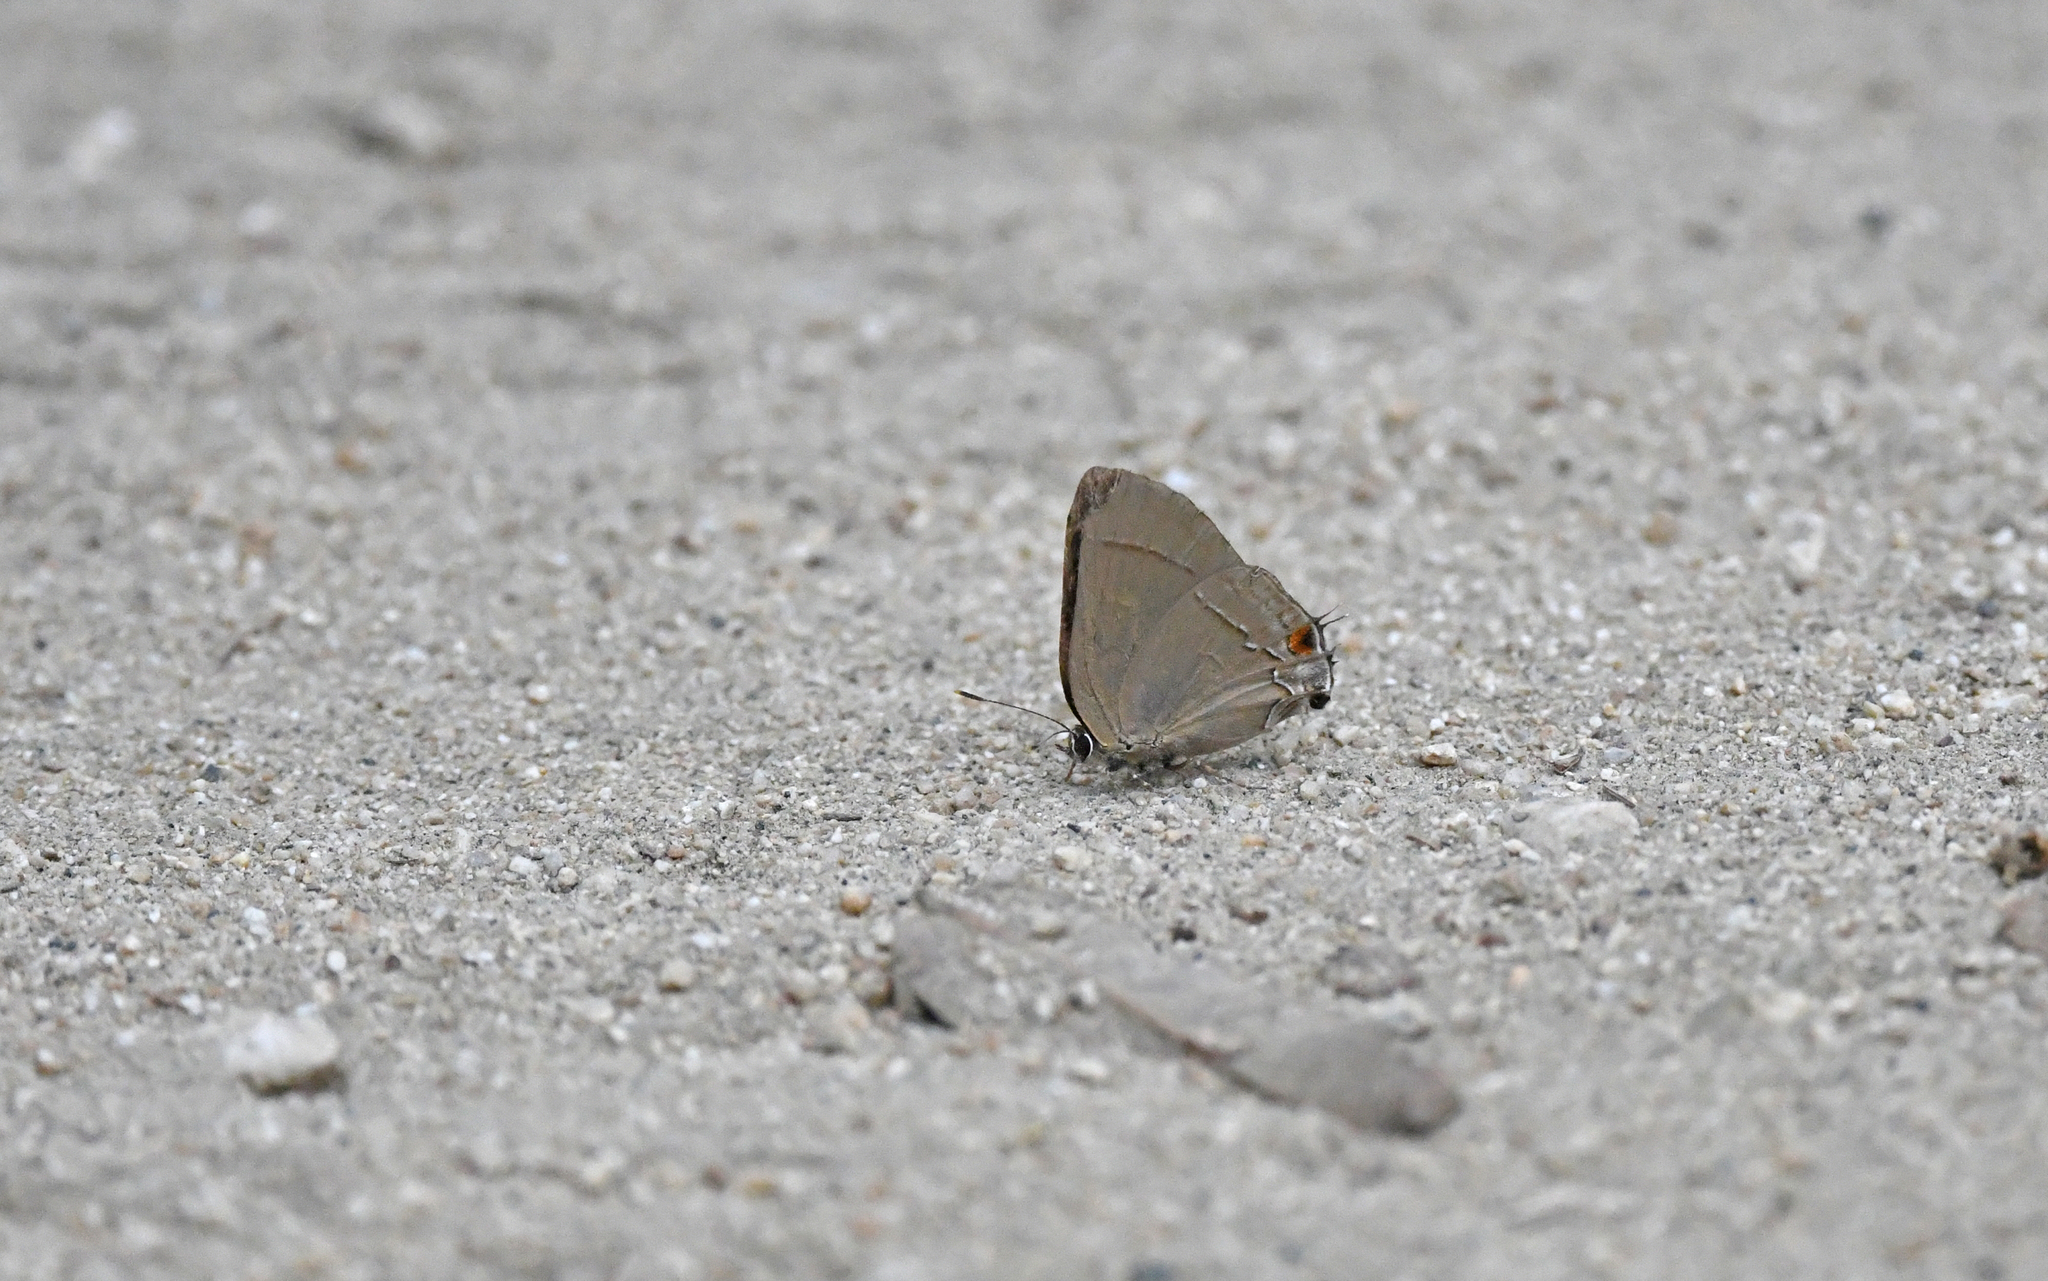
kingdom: Animalia
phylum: Arthropoda
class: Insecta
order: Lepidoptera
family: Lycaenidae
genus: Ziegleria
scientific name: Ziegleria hesperitis
